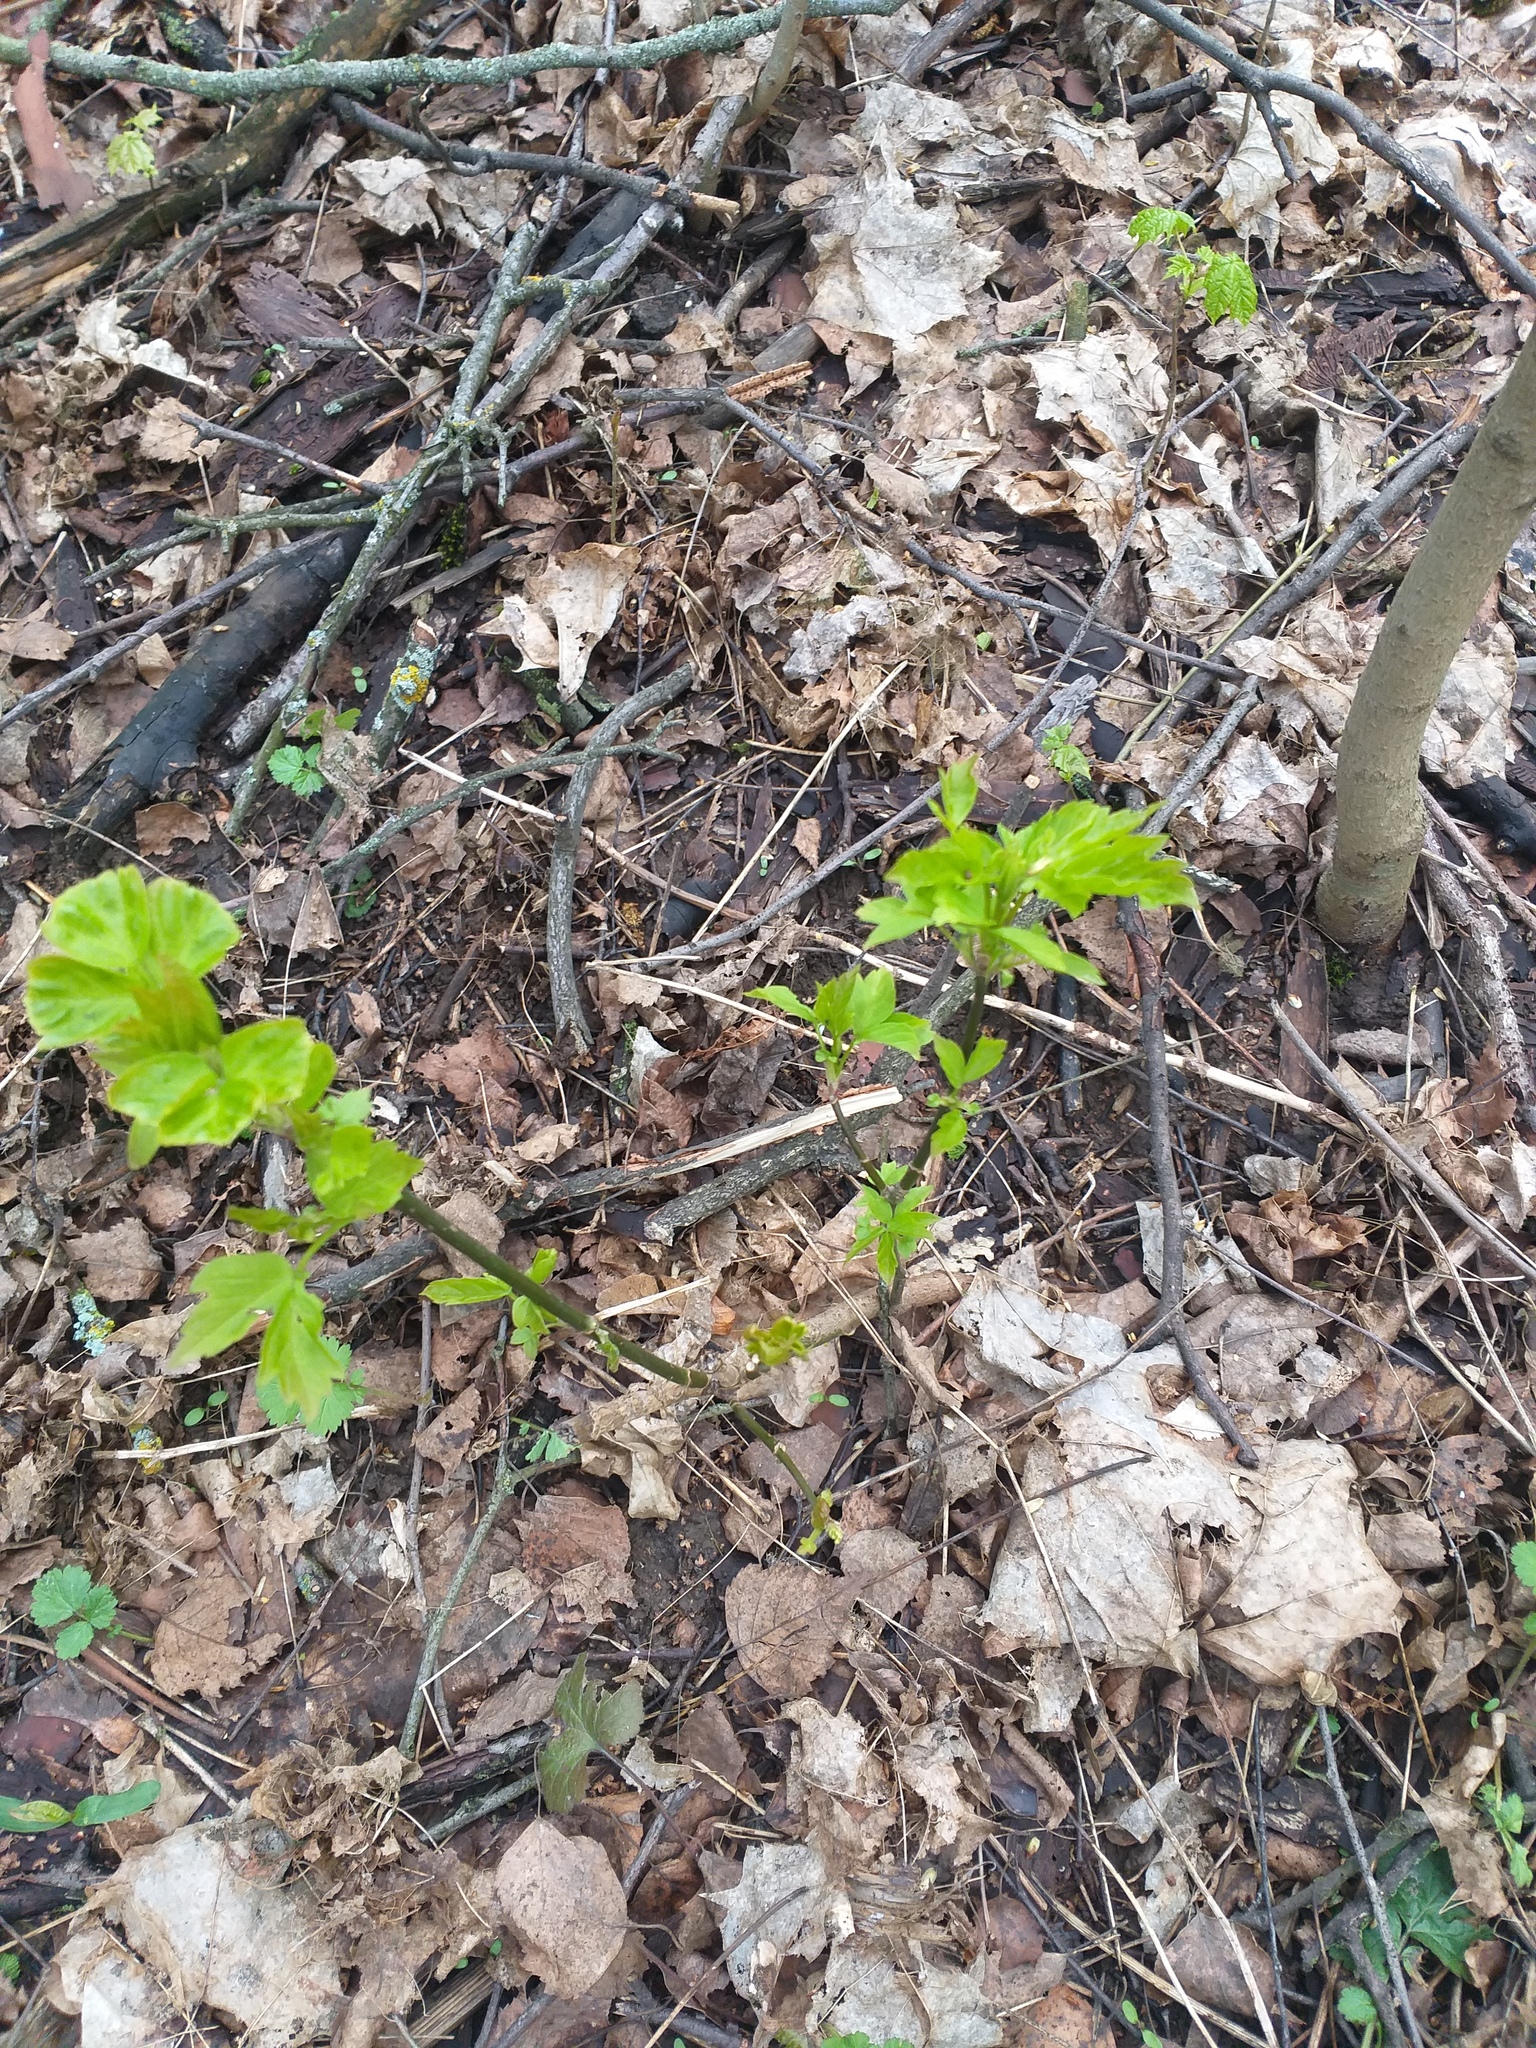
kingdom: Plantae
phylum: Tracheophyta
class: Magnoliopsida
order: Sapindales
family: Sapindaceae
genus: Acer
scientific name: Acer negundo
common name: Ashleaf maple
